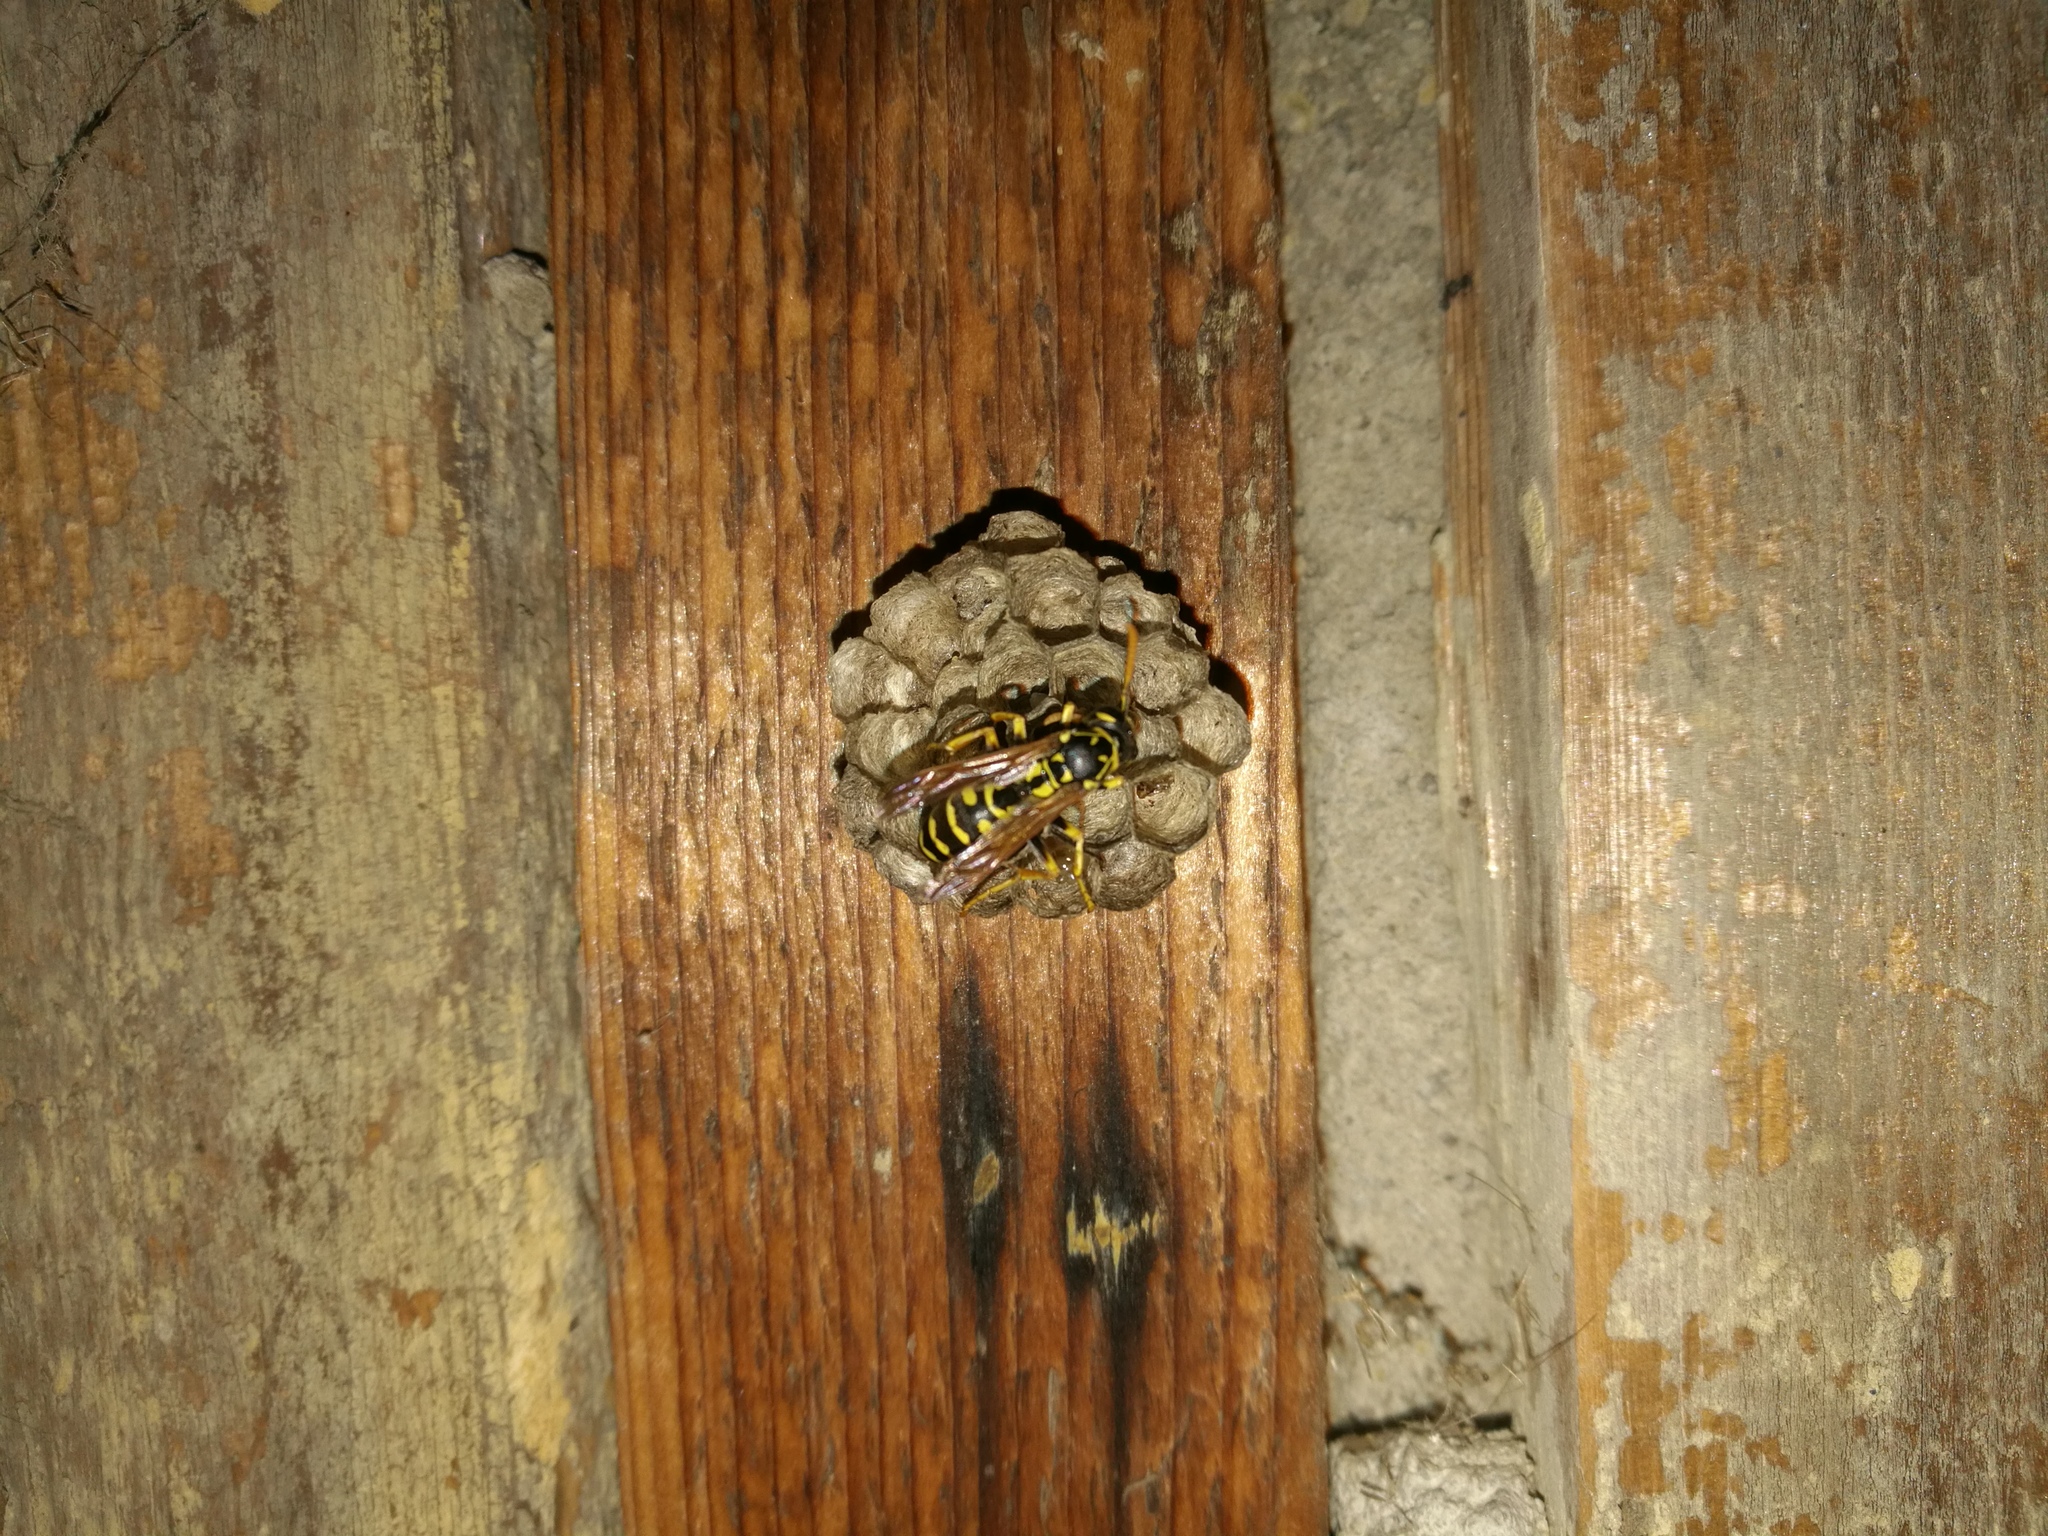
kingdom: Animalia
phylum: Arthropoda
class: Insecta
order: Hymenoptera
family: Eumenidae
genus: Polistes
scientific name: Polistes dominula
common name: Paper wasp
